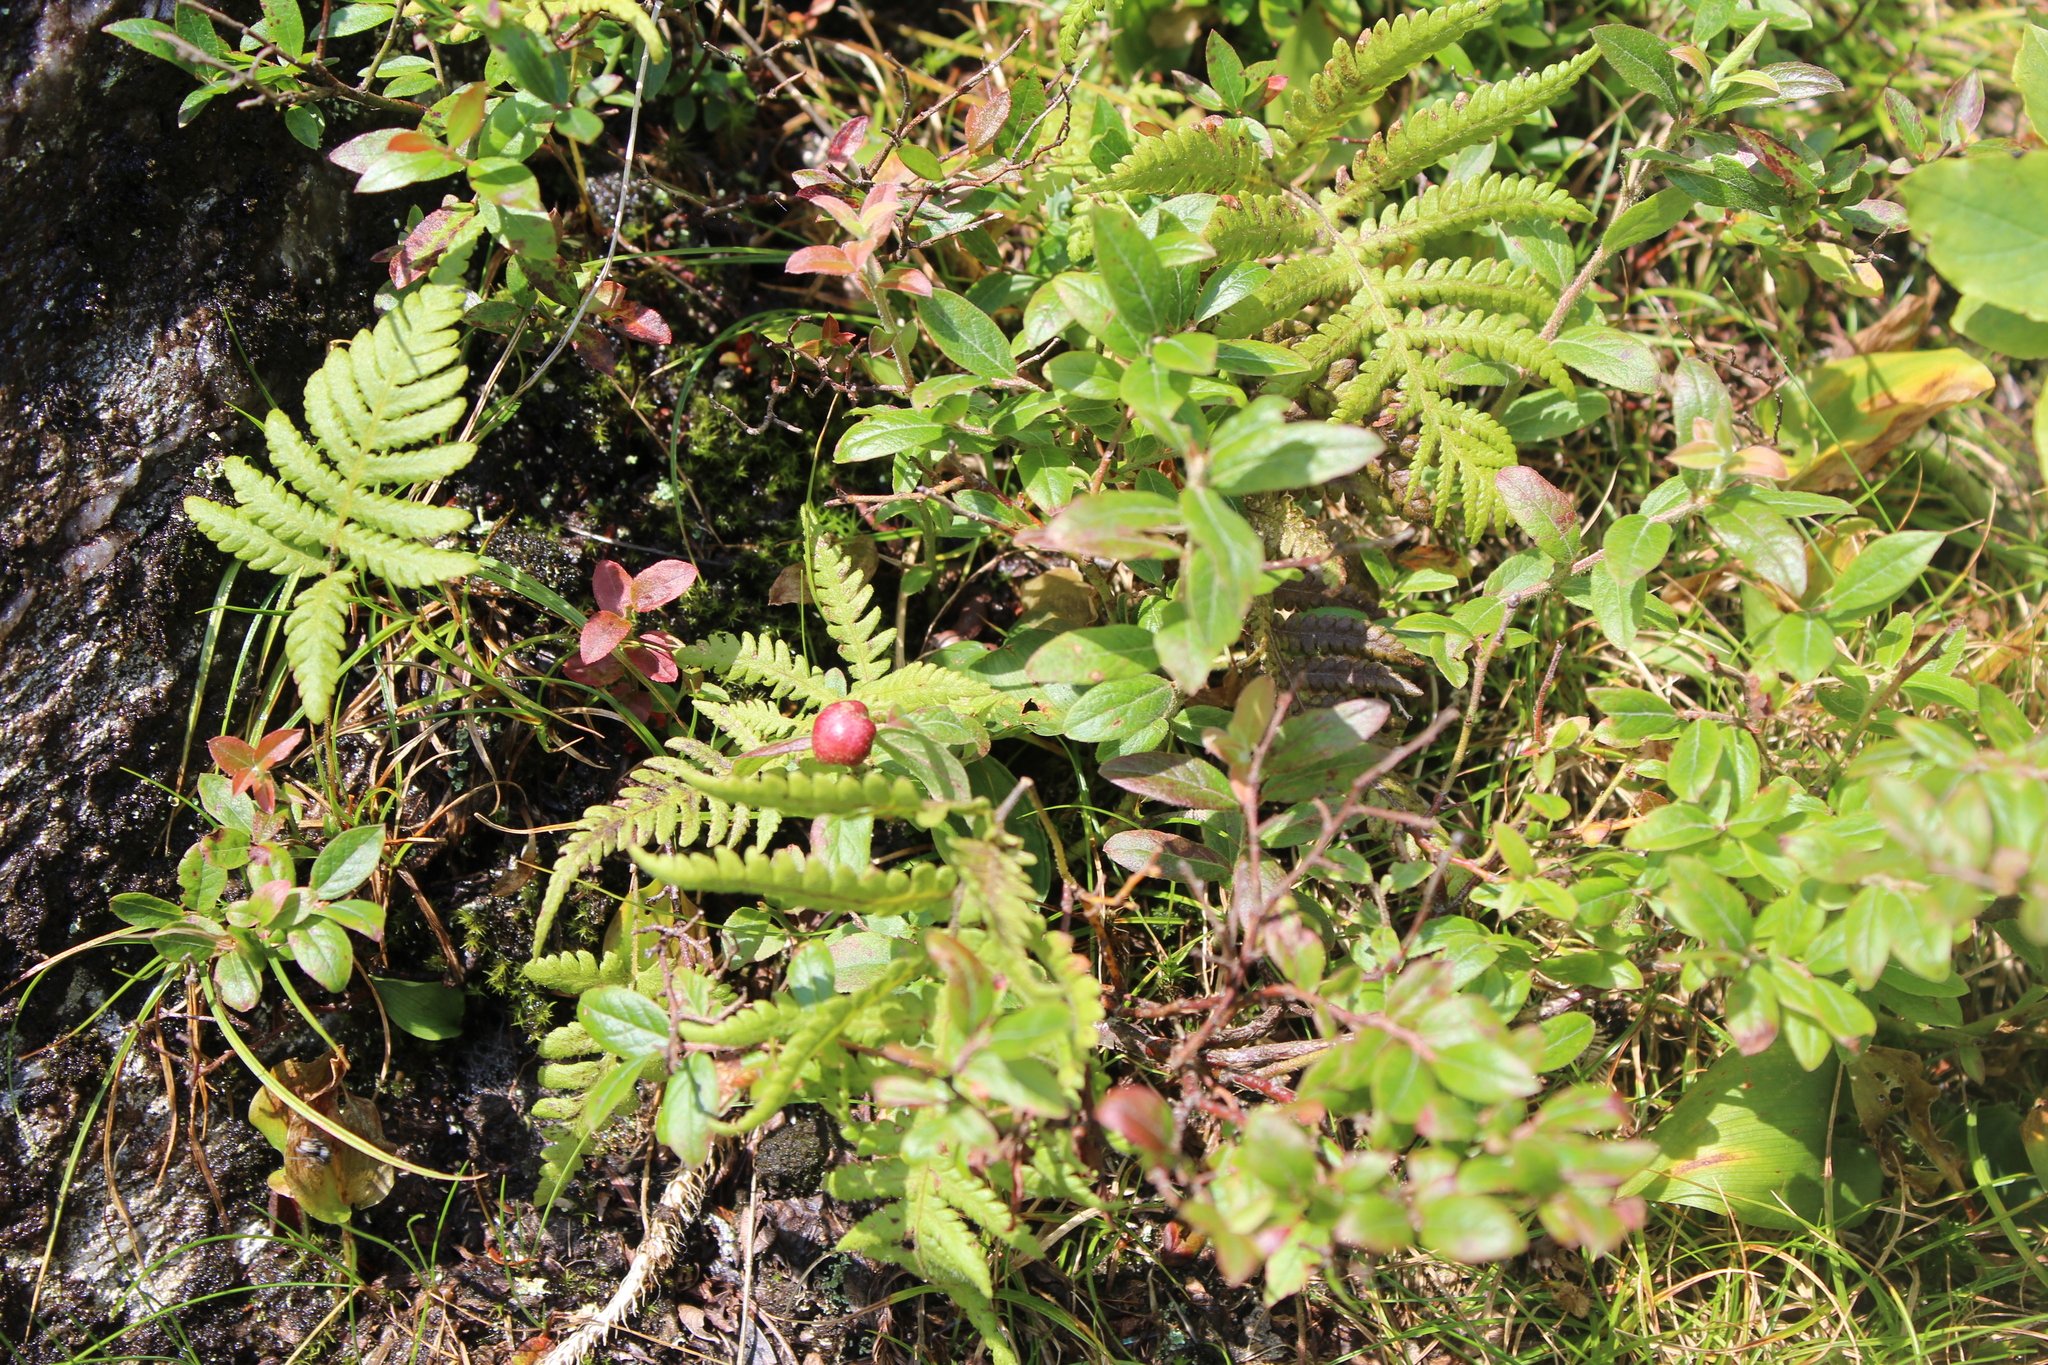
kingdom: Animalia
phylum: Arthropoda
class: Insecta
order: Hymenoptera
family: Pteromalidae
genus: Hemadas
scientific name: Hemadas nubilipennis
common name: Blueberry stem gall wasp
